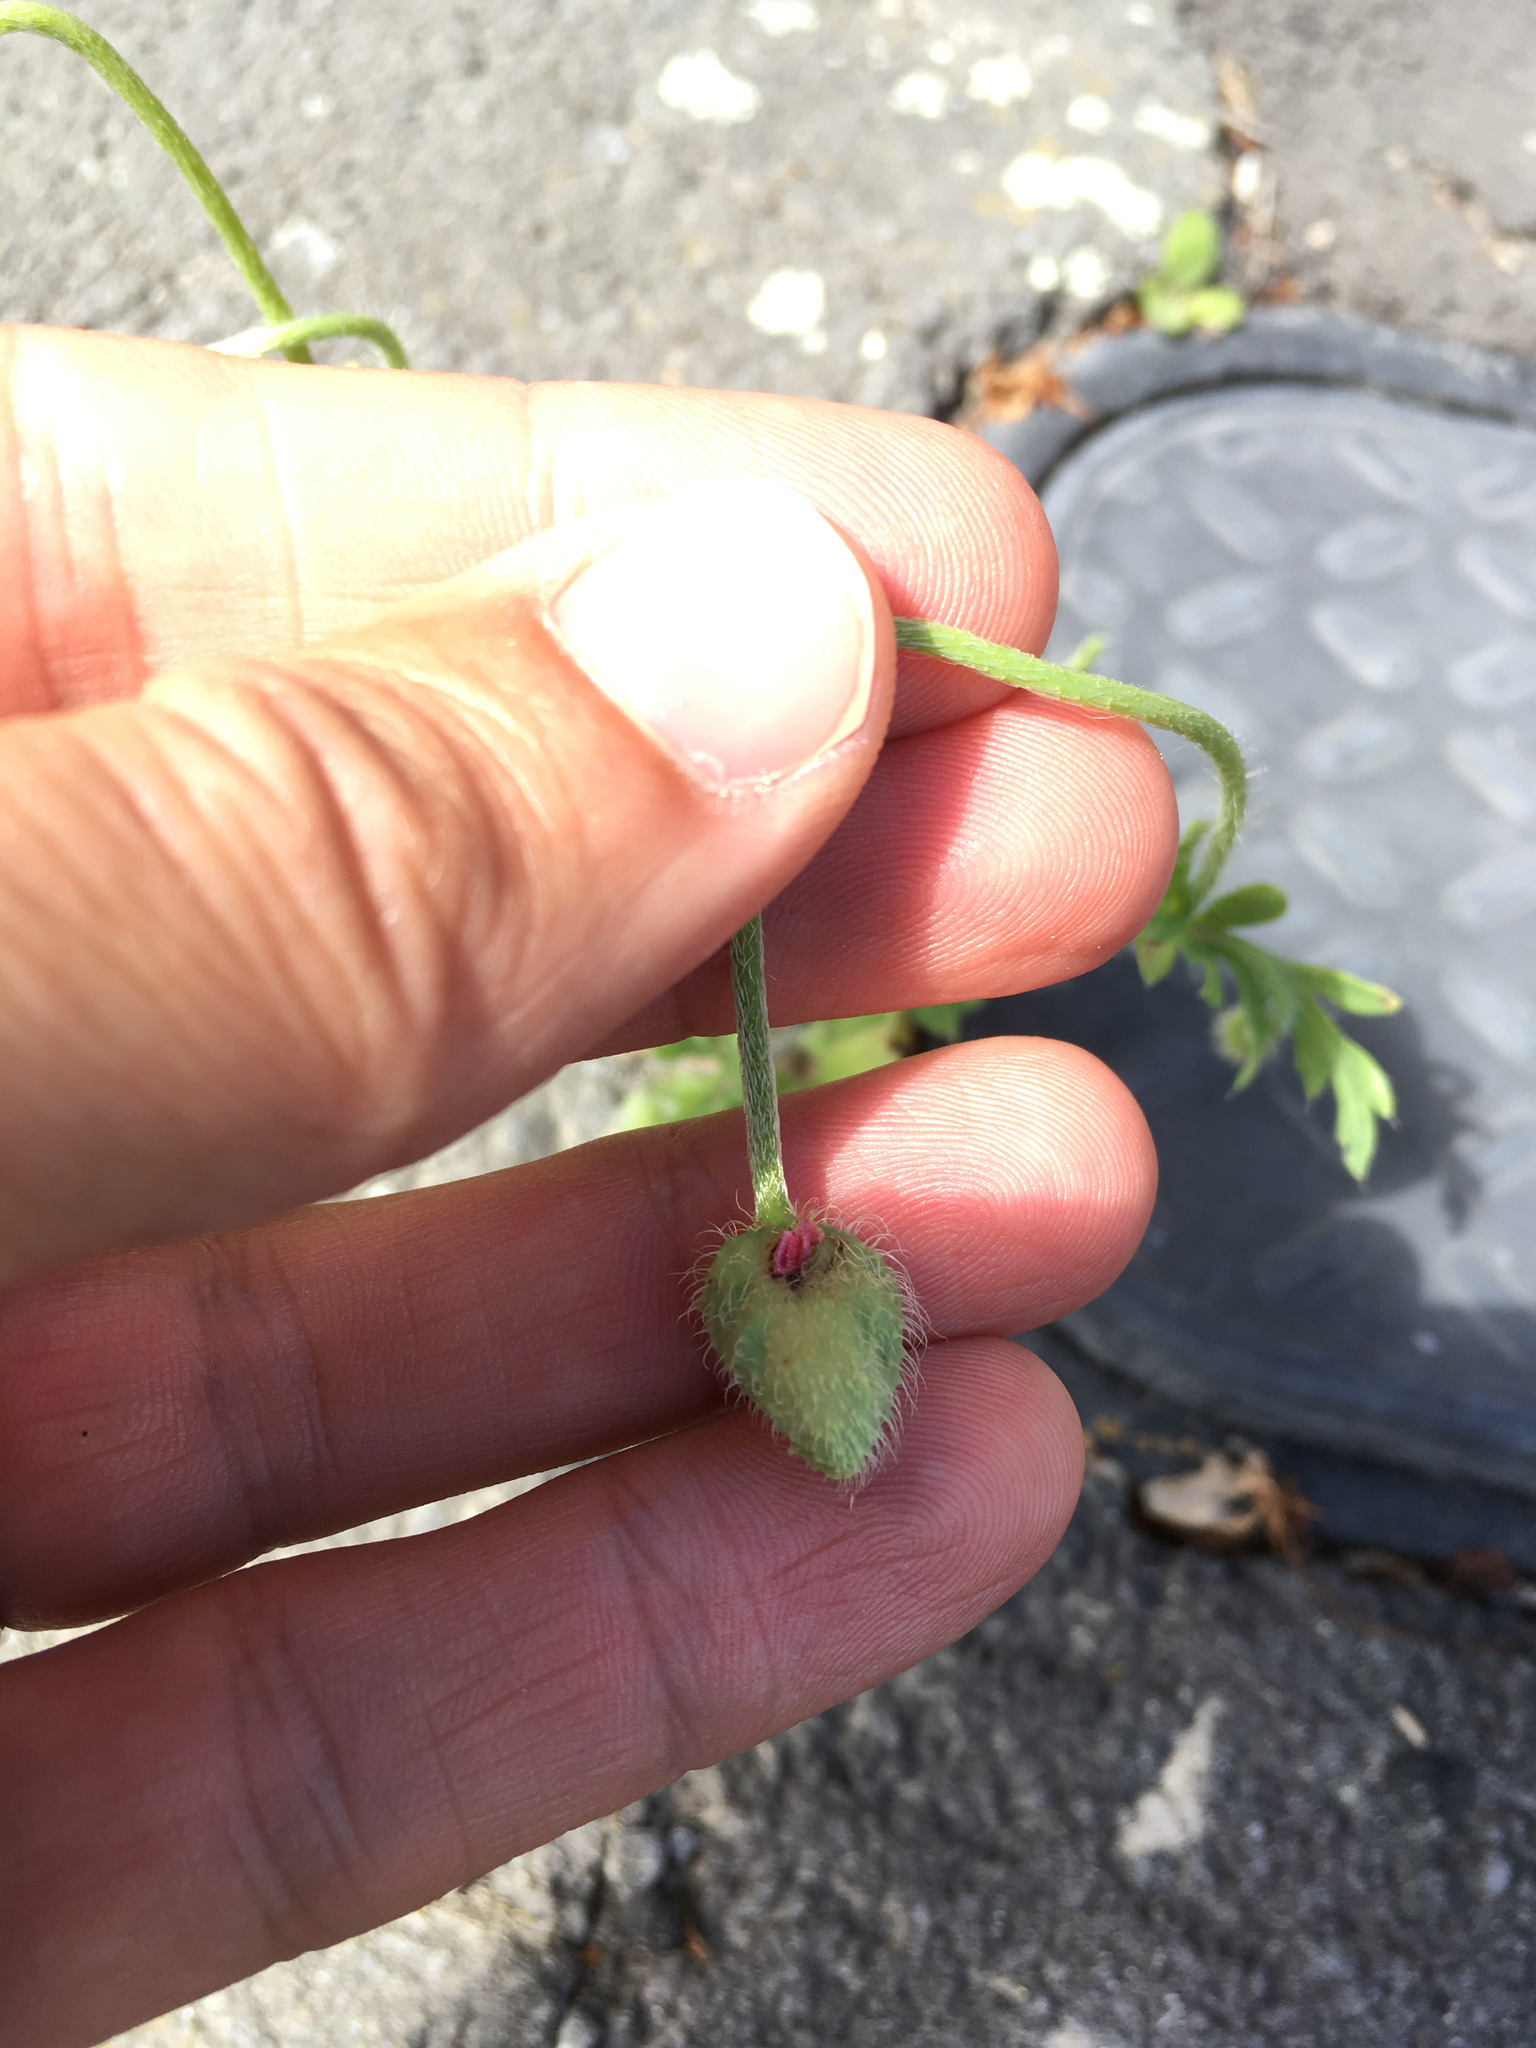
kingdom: Plantae
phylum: Tracheophyta
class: Magnoliopsida
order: Ranunculales
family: Papaveraceae
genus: Papaver
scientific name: Papaver rhoeas
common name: Corn poppy
